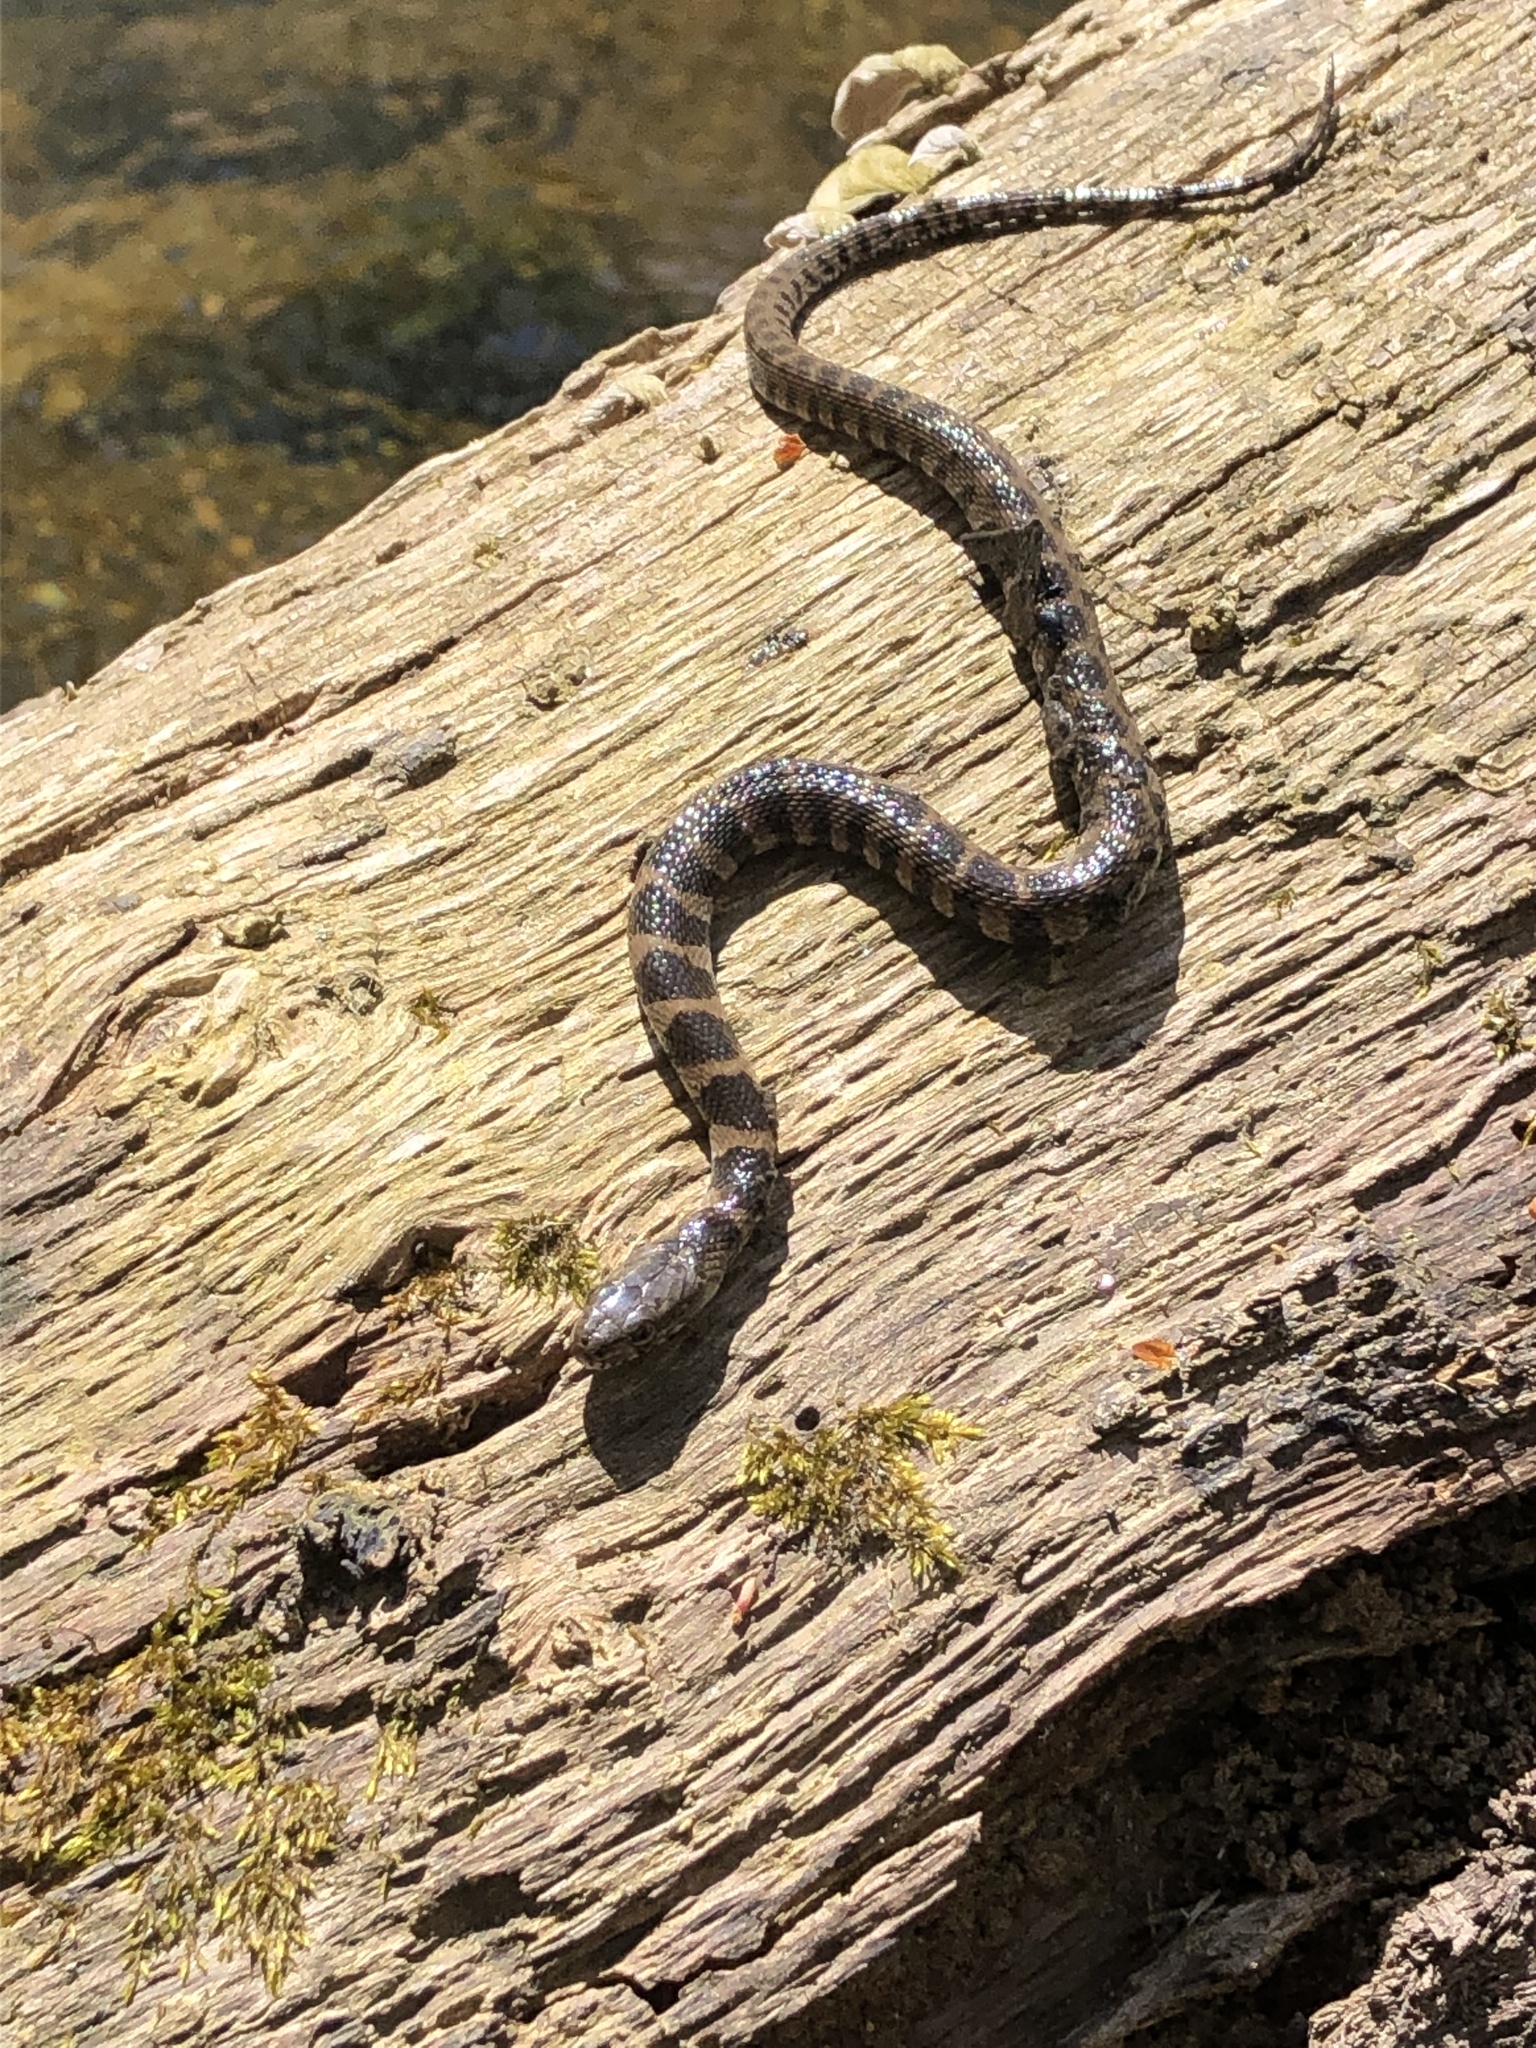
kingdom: Animalia
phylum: Chordata
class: Squamata
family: Colubridae
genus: Nerodia
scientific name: Nerodia sipedon
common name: Northern water snake
